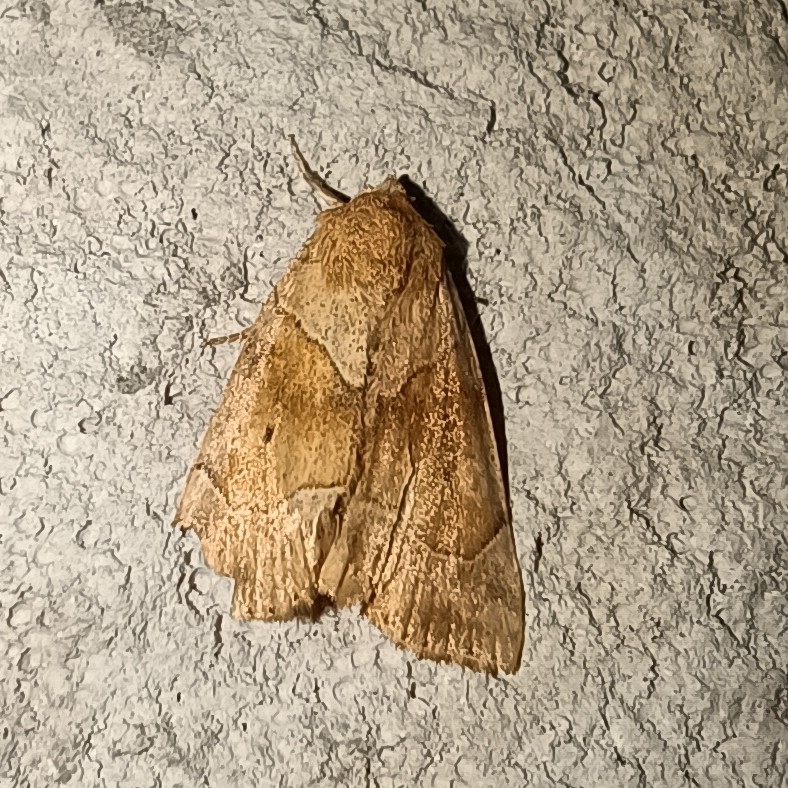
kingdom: Animalia
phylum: Arthropoda
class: Insecta
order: Lepidoptera
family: Noctuidae
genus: Cosmia
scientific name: Cosmia trapezina
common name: Dun-bar
